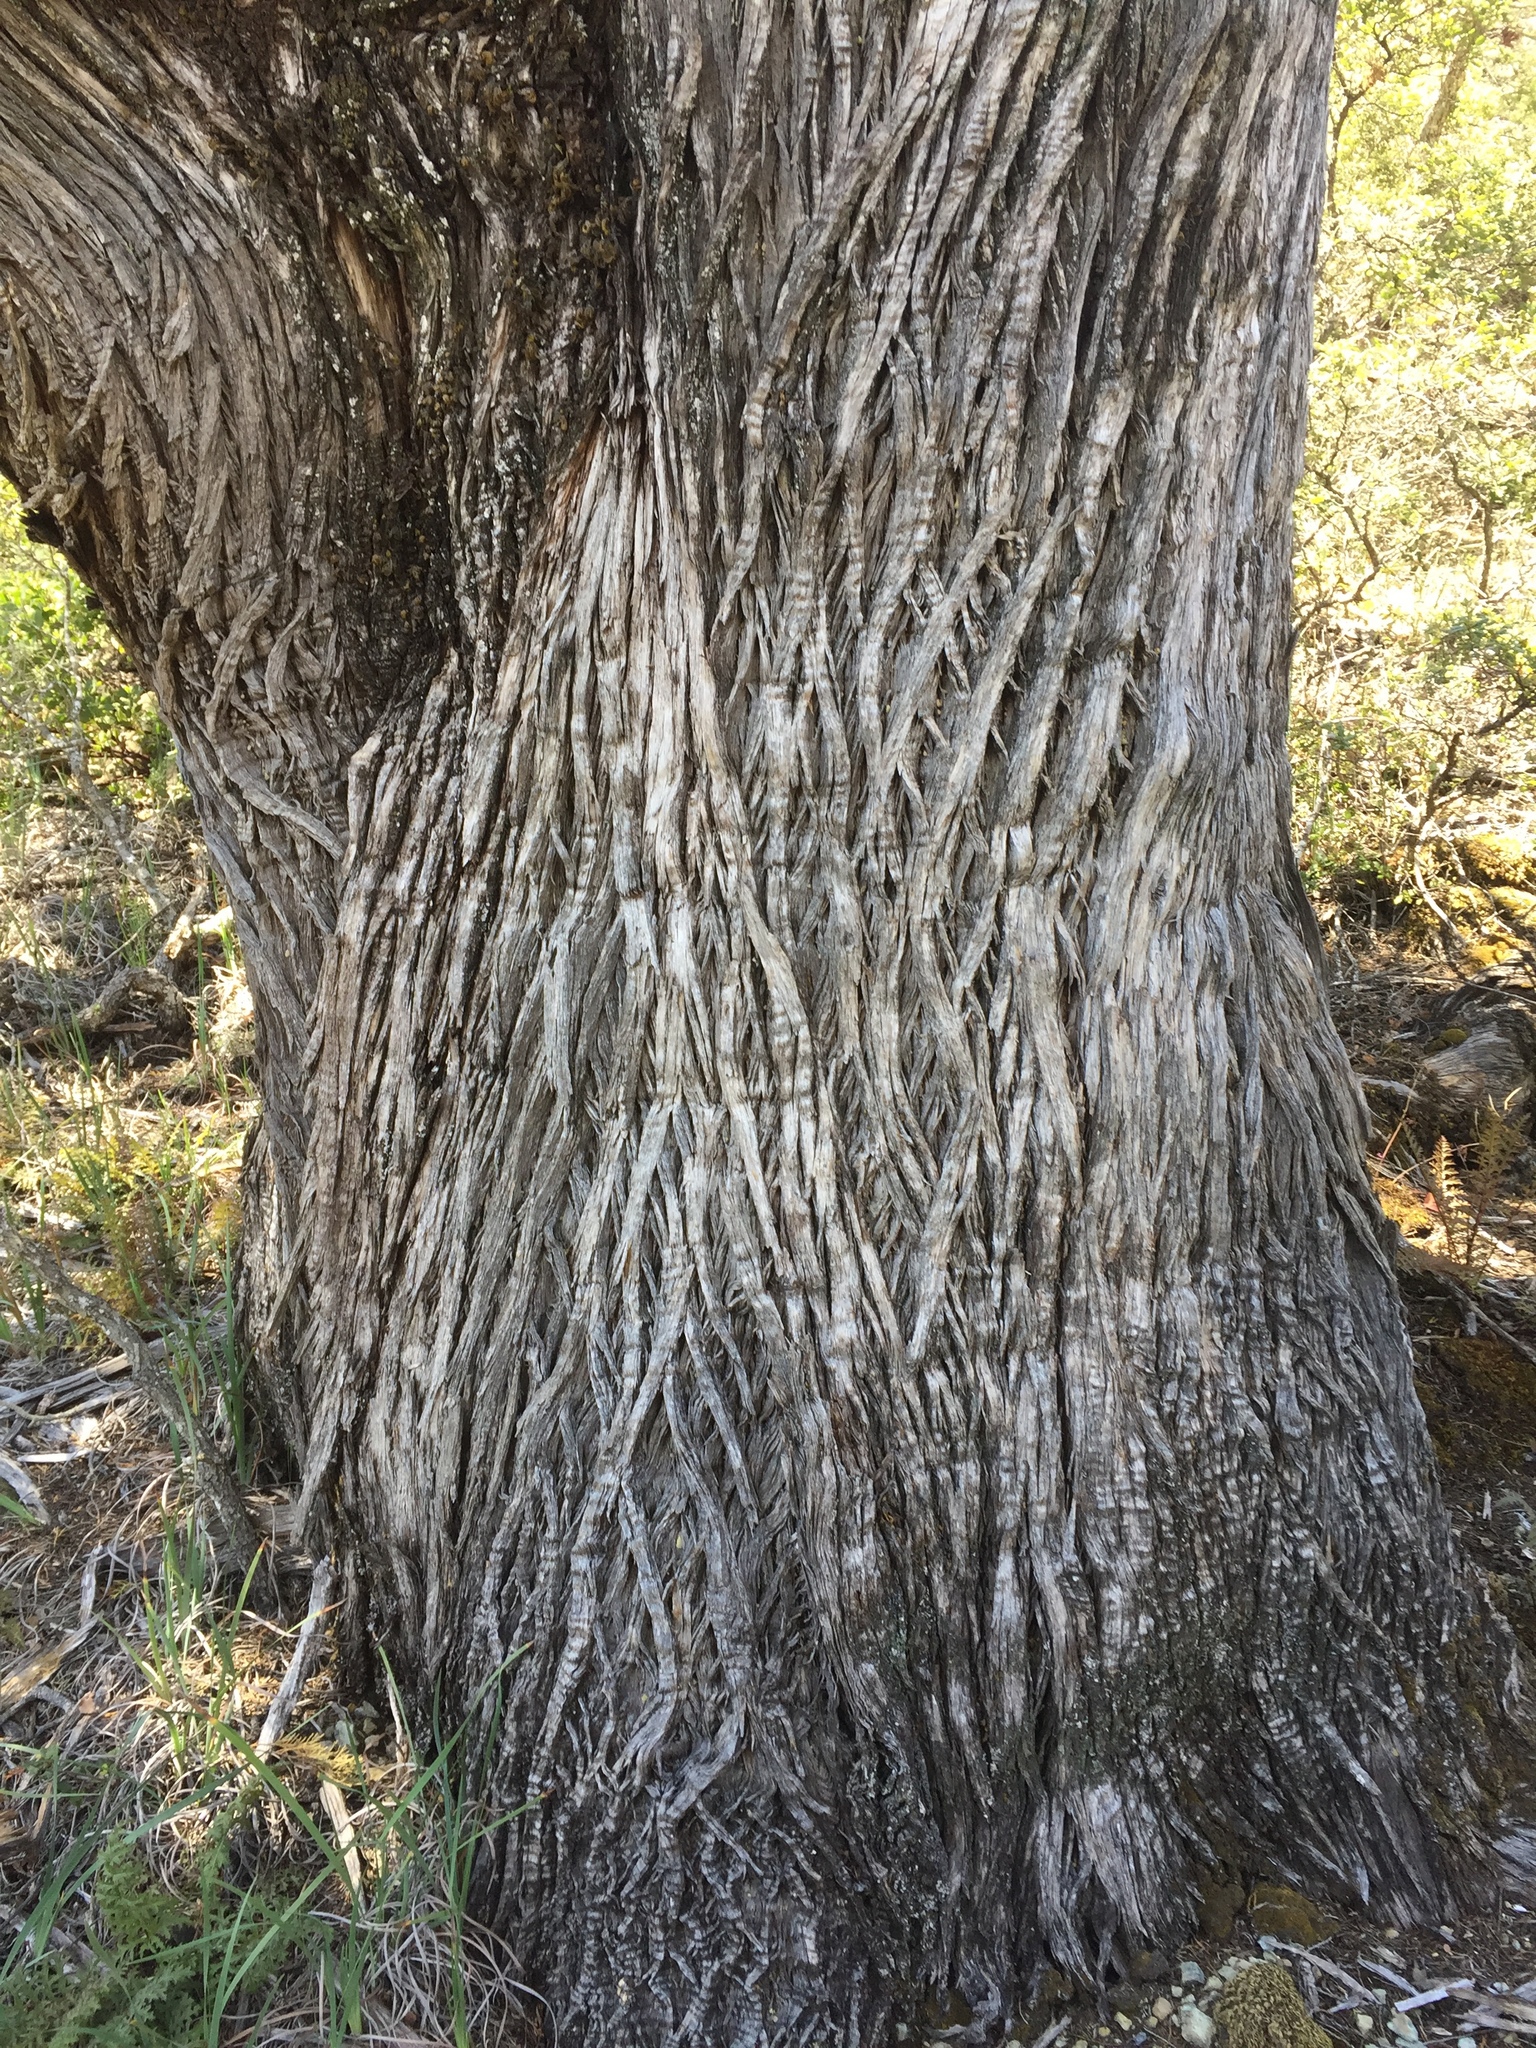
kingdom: Plantae
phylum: Tracheophyta
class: Pinopsida
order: Pinales
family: Cupressaceae
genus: Cupressus
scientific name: Cupressus sargentii
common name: Sargent cypress
